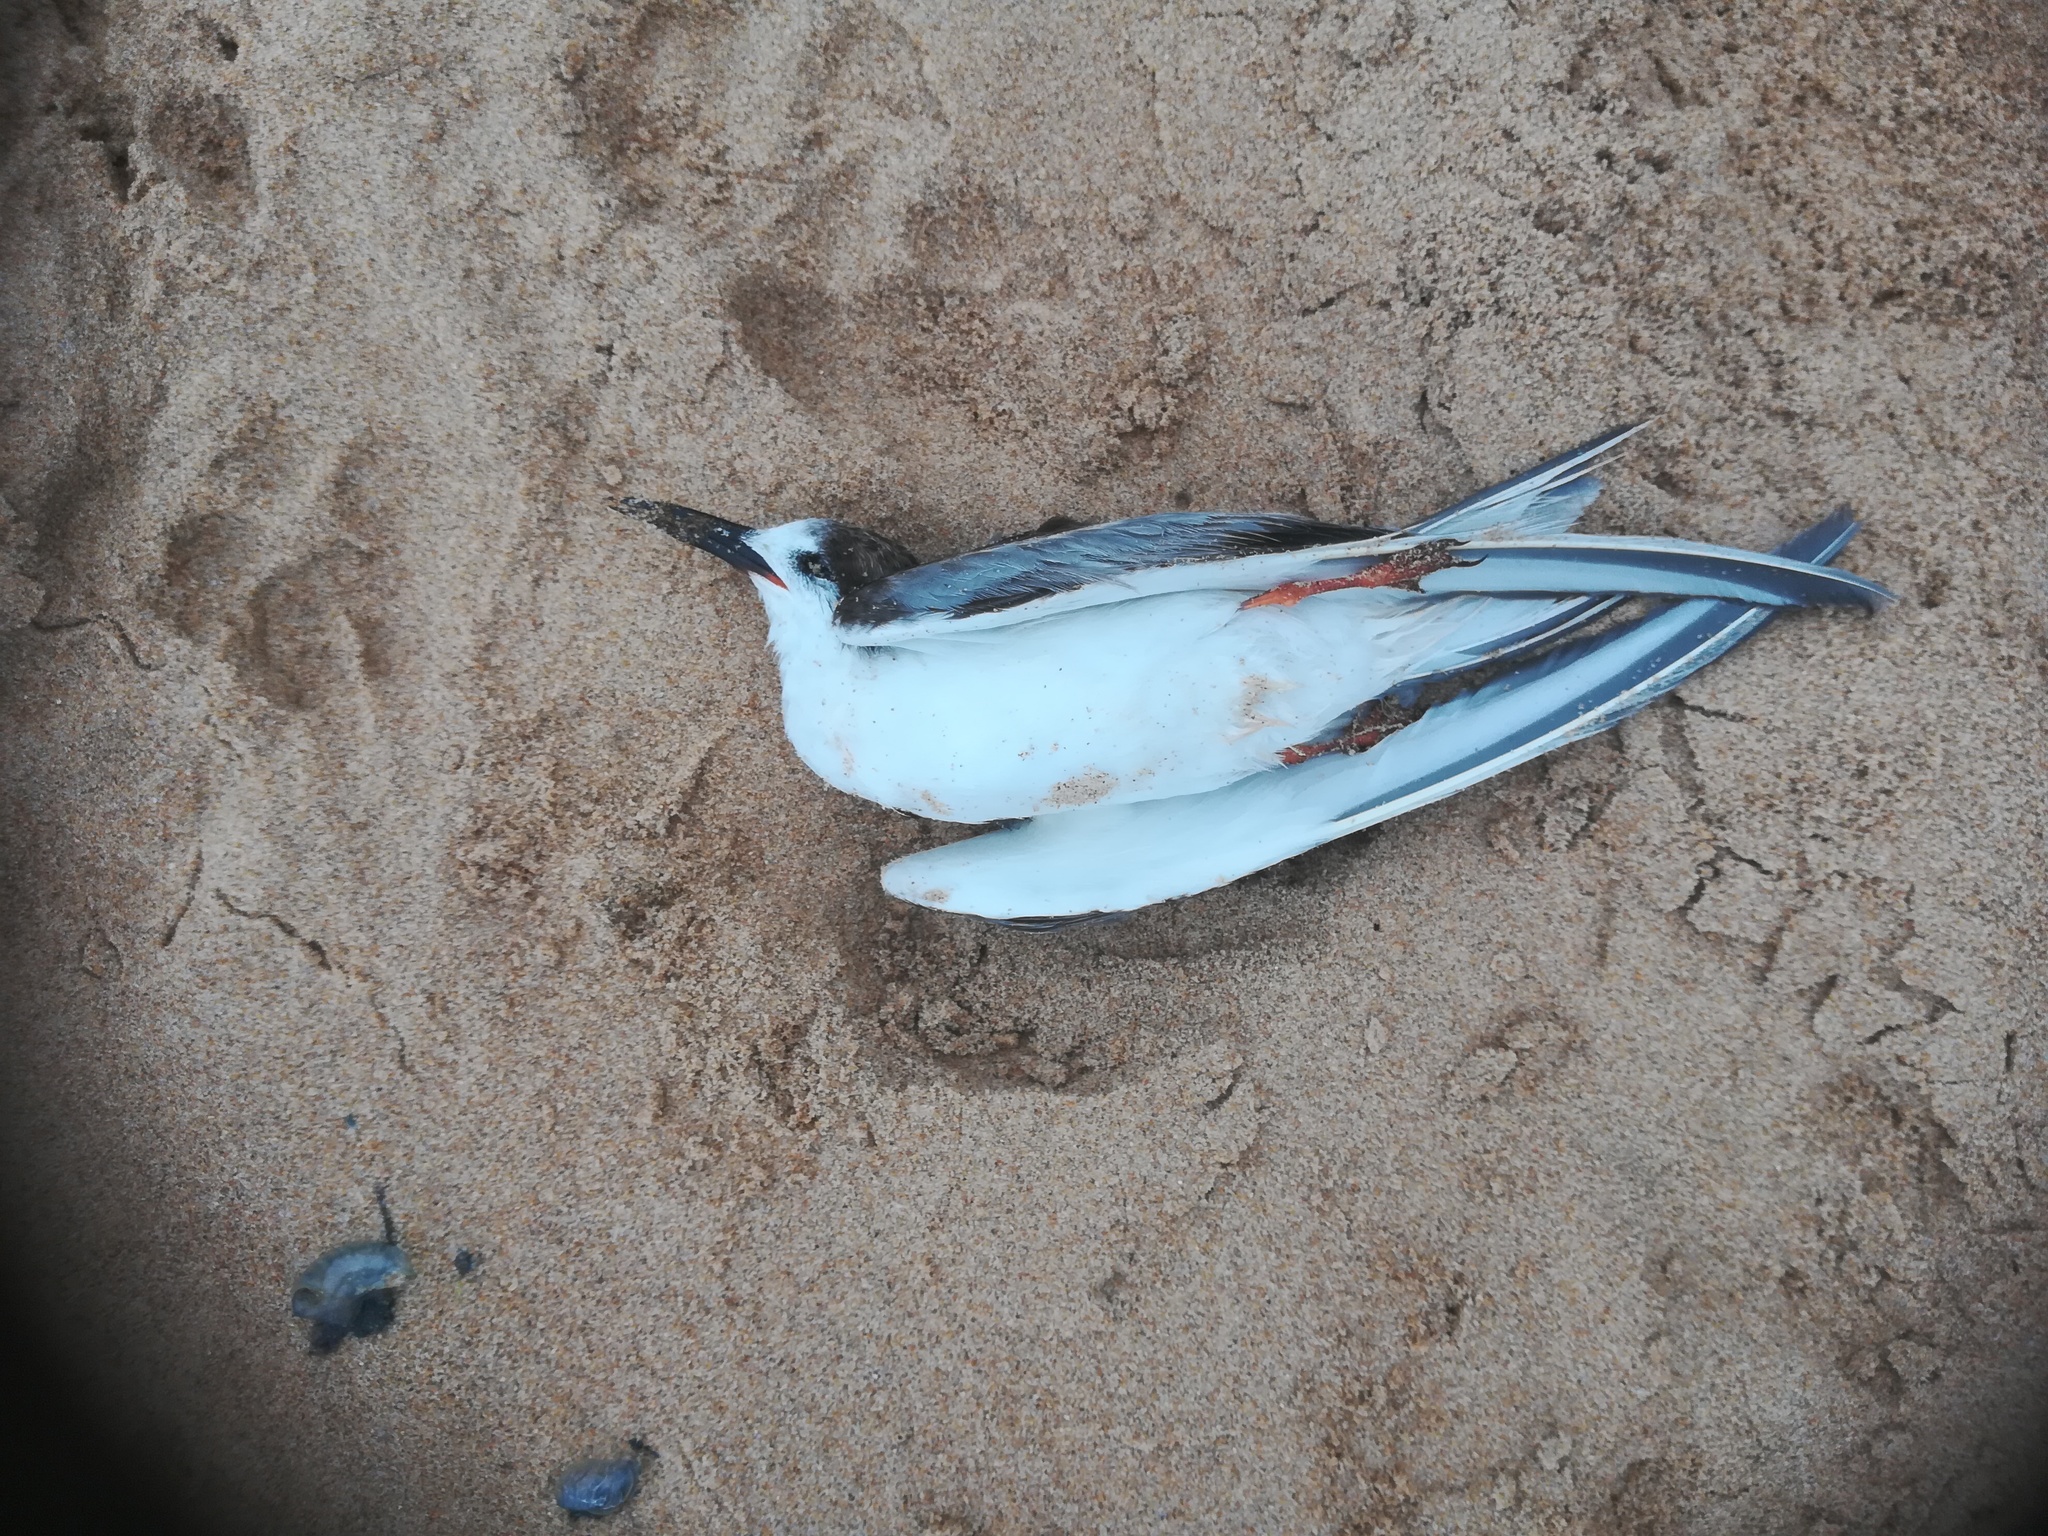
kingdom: Animalia
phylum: Chordata
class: Aves
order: Charadriiformes
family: Laridae
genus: Sterna
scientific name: Sterna hirundo
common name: Common tern
